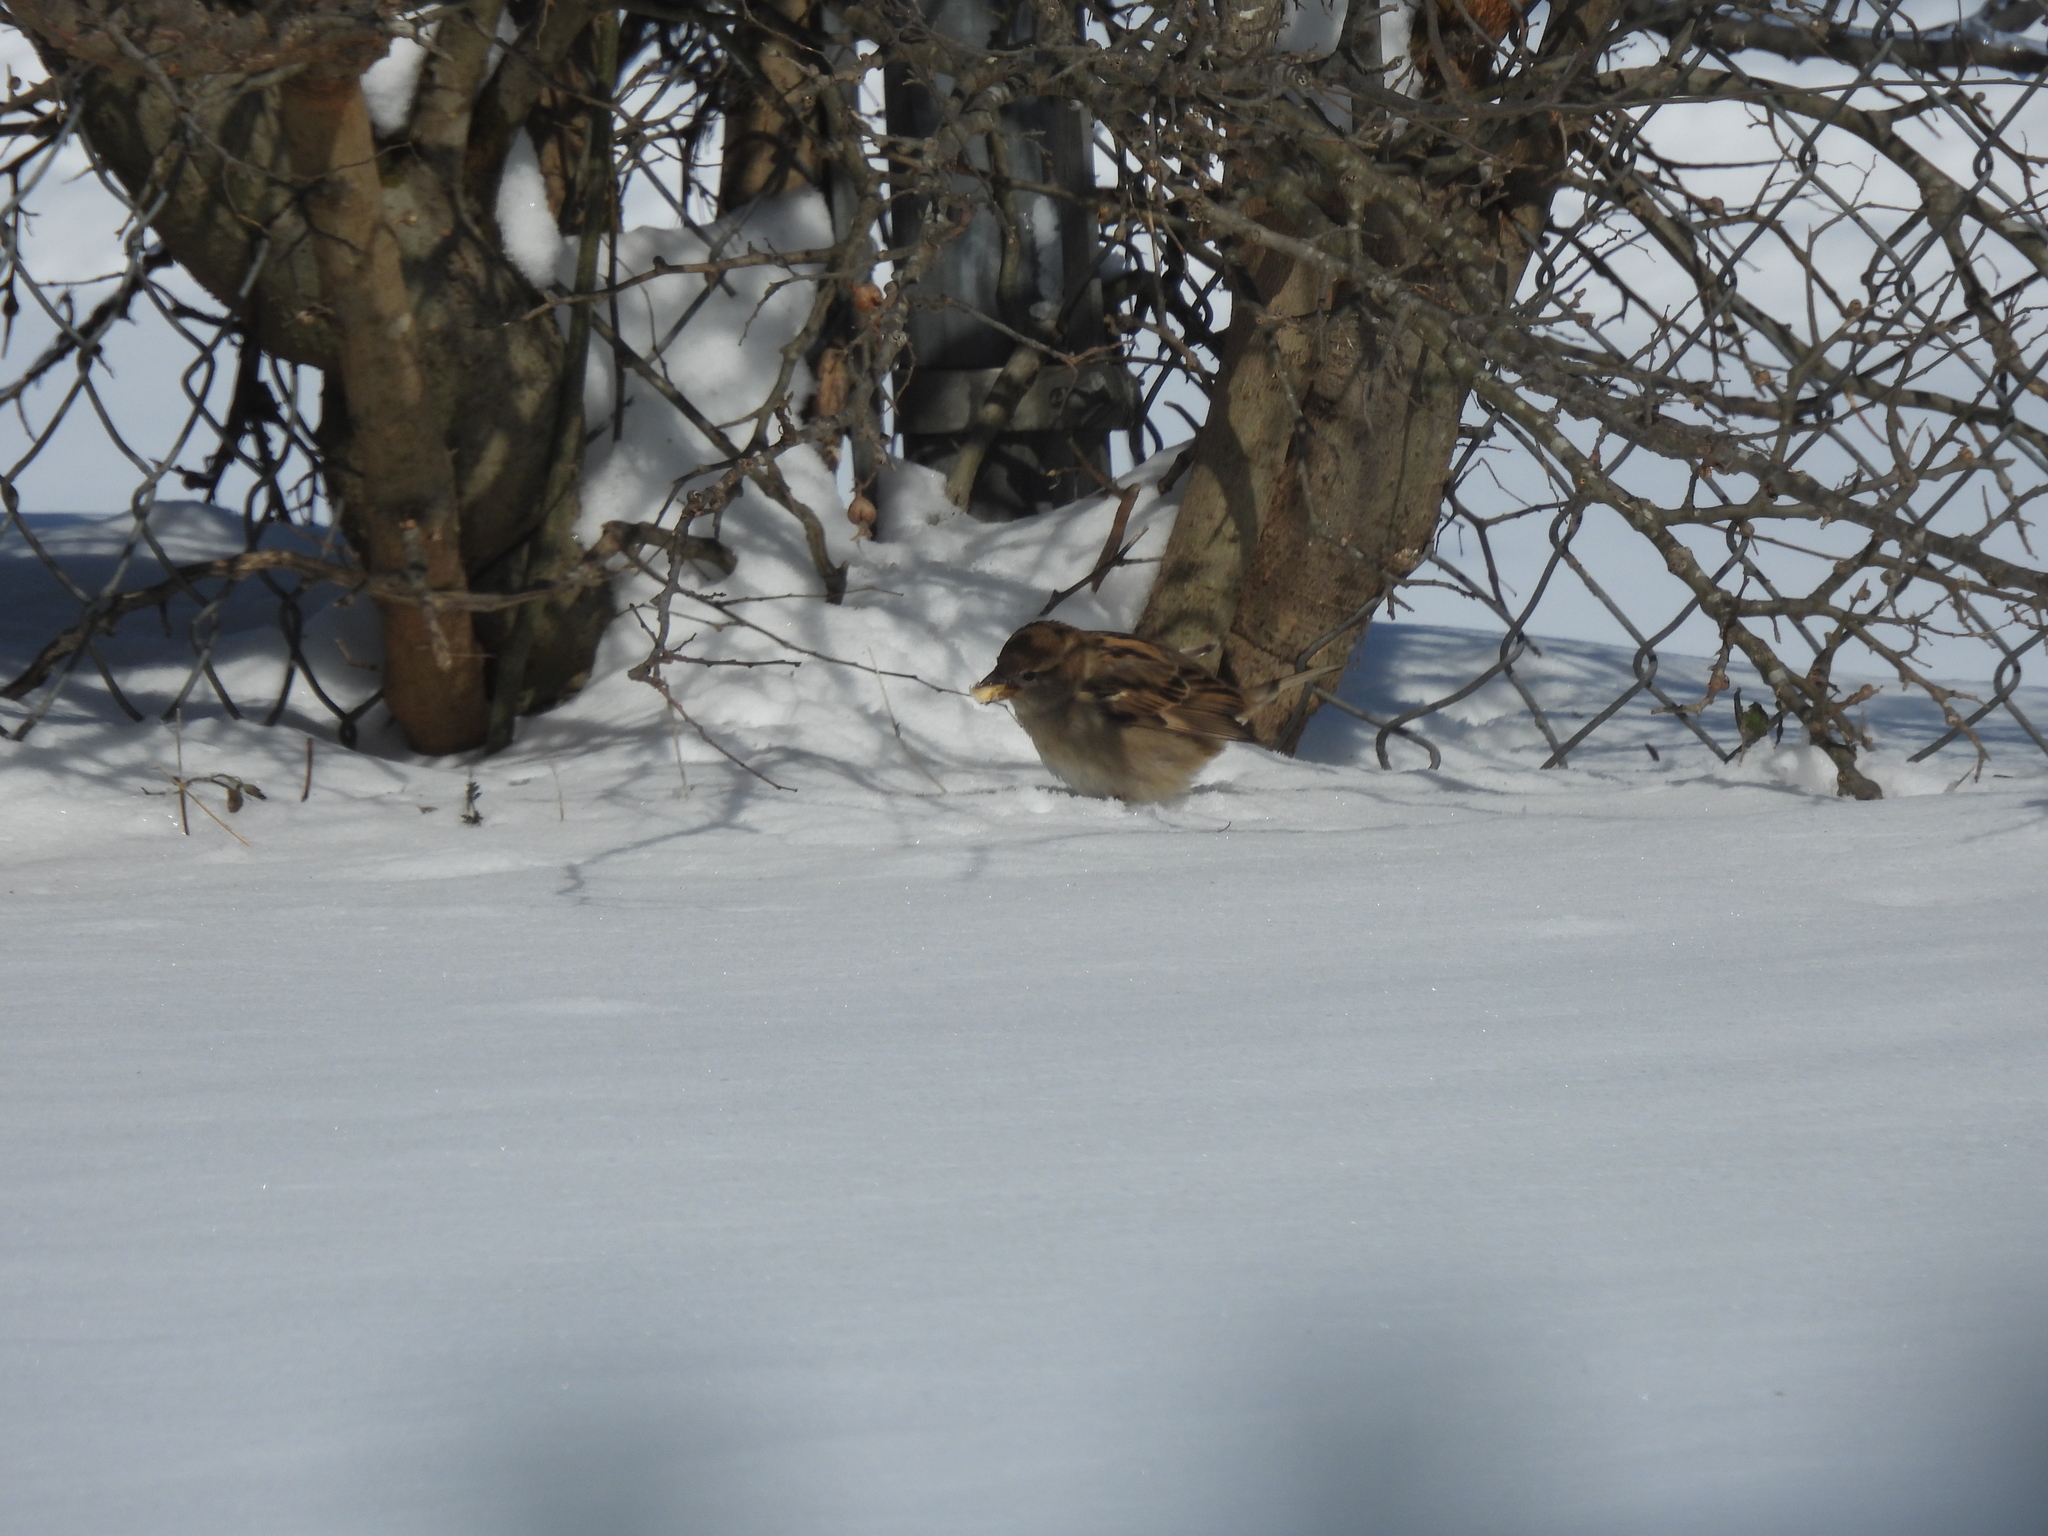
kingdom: Animalia
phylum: Chordata
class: Aves
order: Passeriformes
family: Passeridae
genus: Passer
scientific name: Passer domesticus
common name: House sparrow
